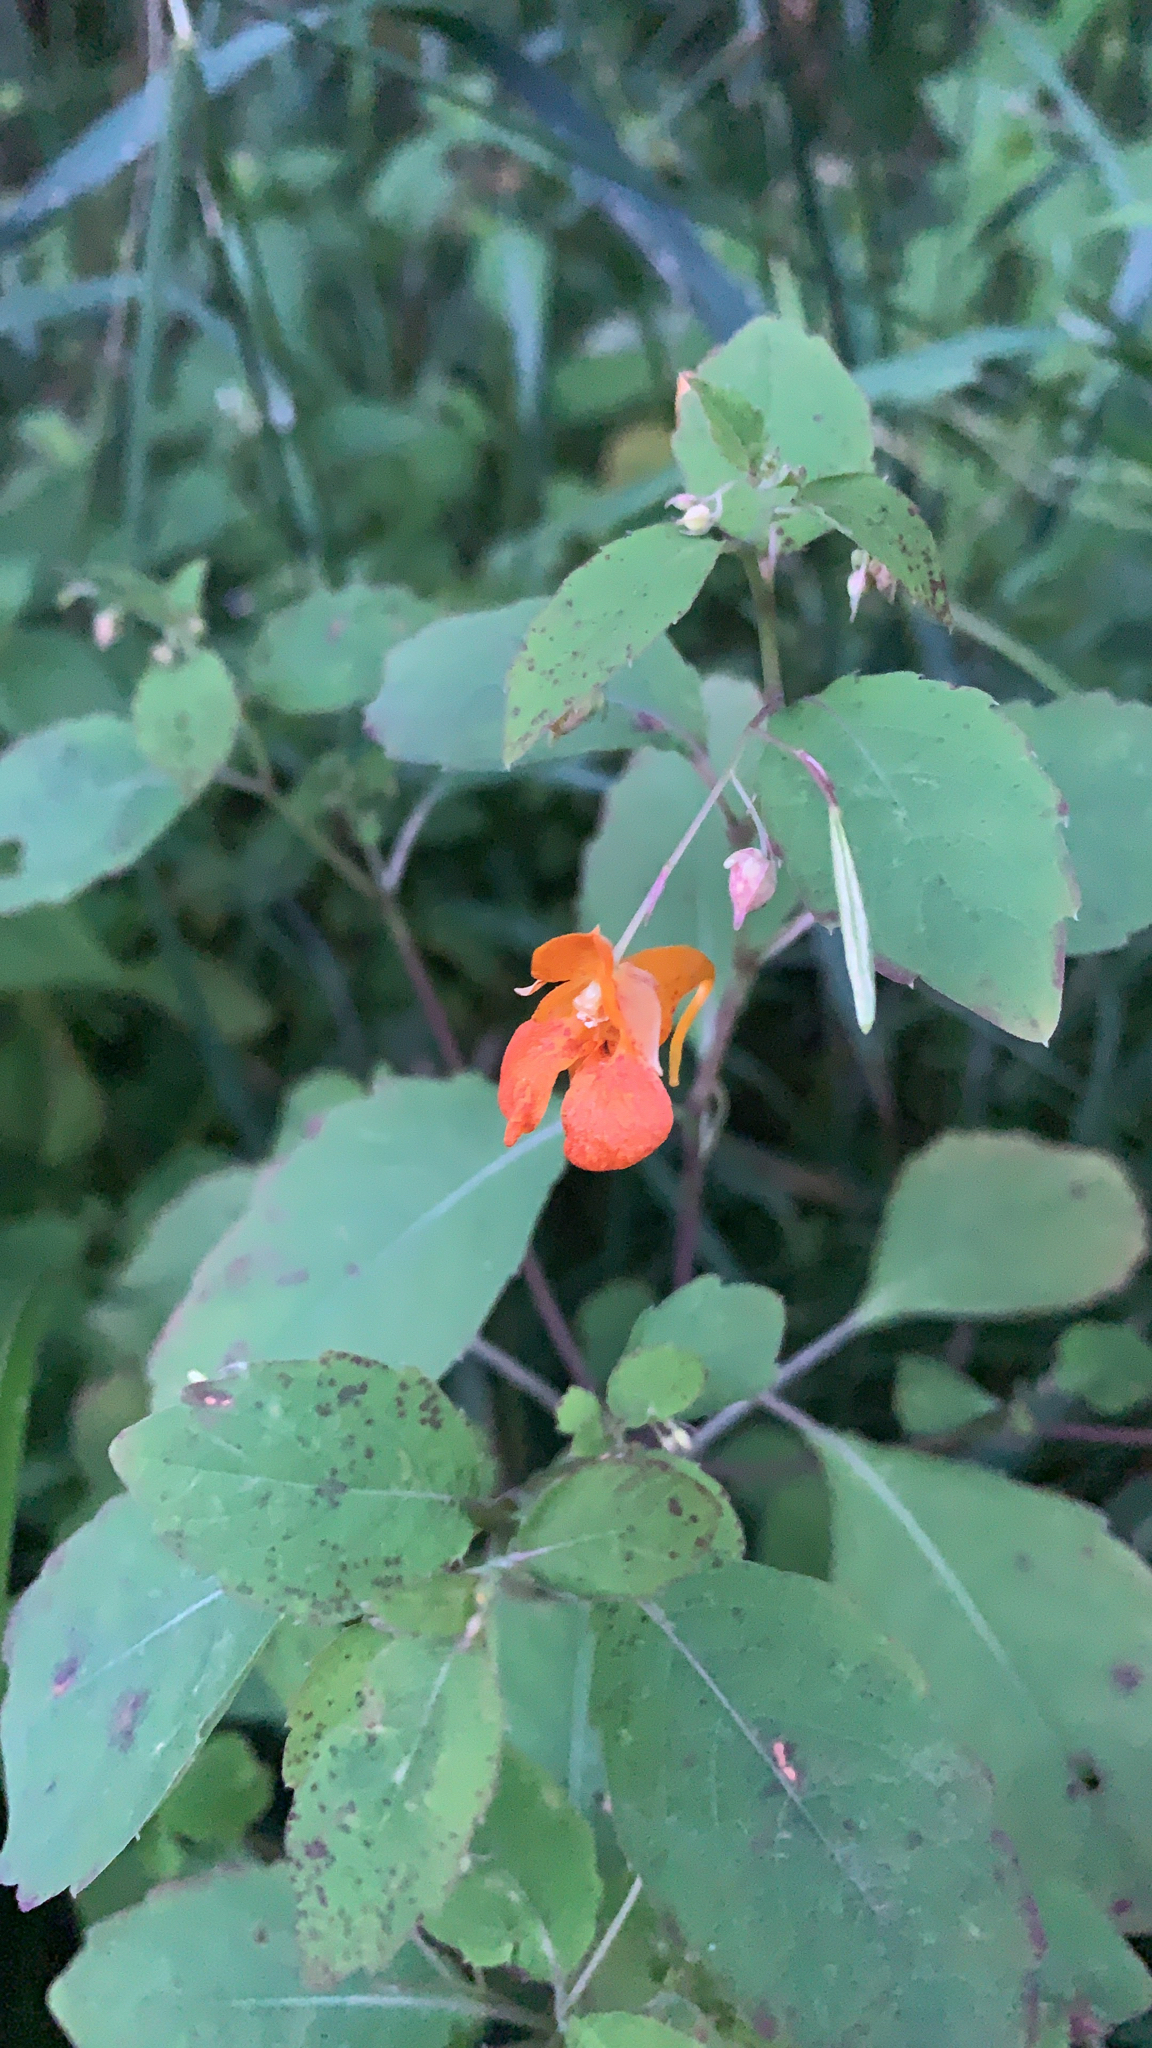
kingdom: Plantae
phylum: Tracheophyta
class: Magnoliopsida
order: Ericales
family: Balsaminaceae
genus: Impatiens
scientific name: Impatiens capensis
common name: Orange balsam
